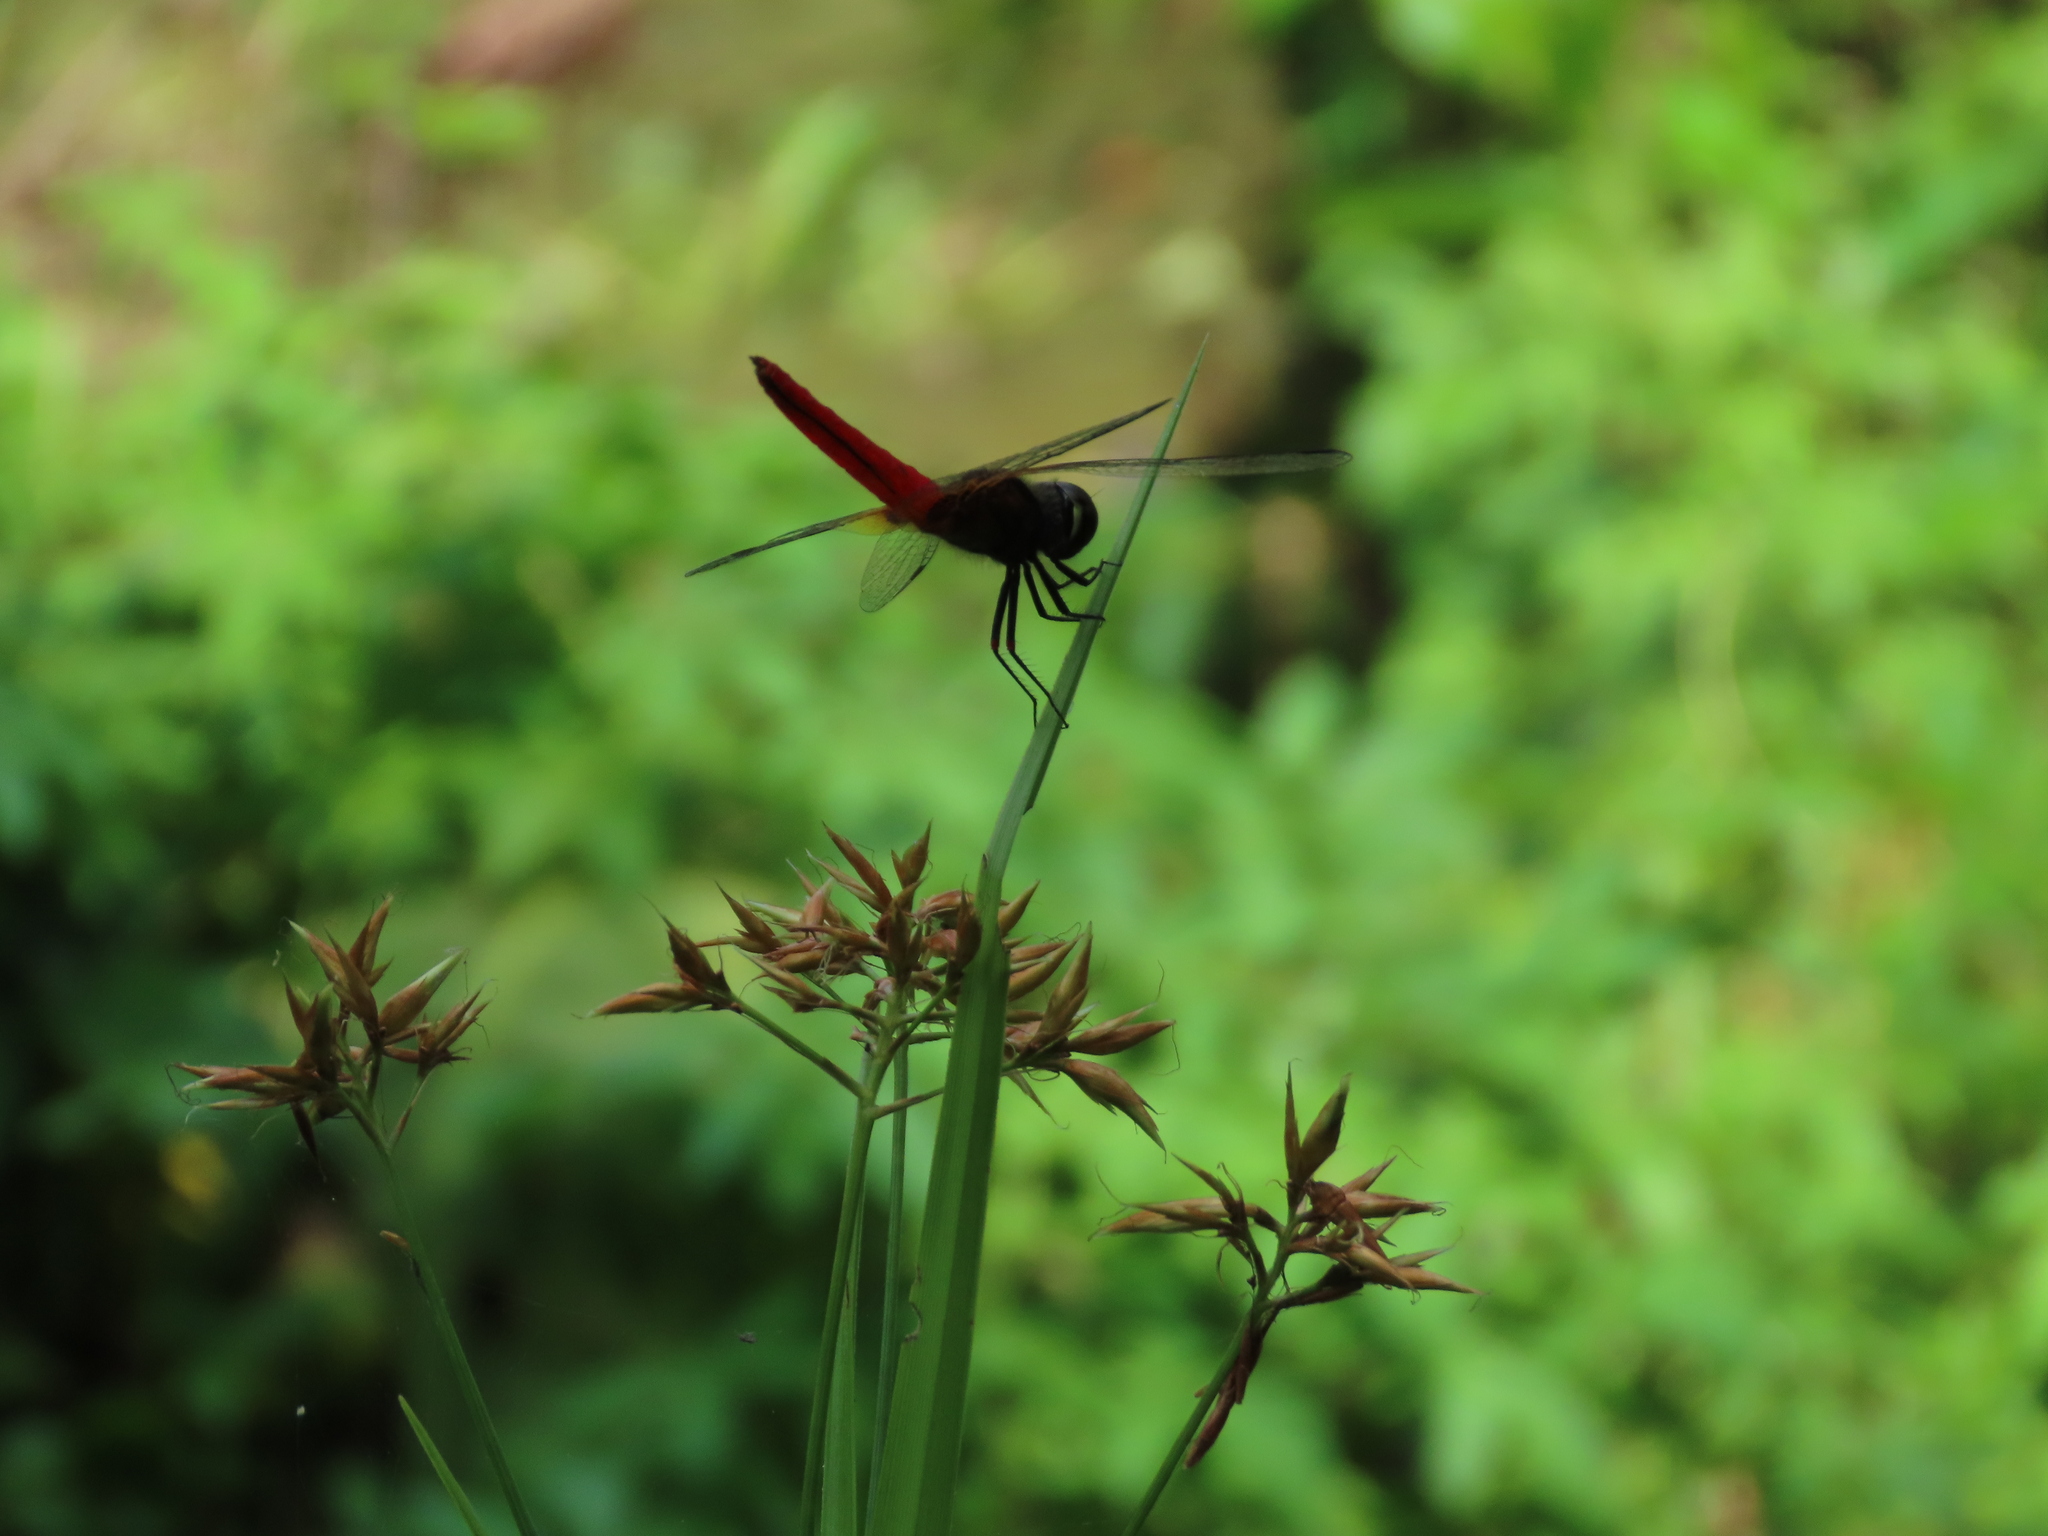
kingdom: Animalia
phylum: Arthropoda
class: Insecta
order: Odonata
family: Libellulidae
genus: Aethriamanta
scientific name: Aethriamanta brevipennis
